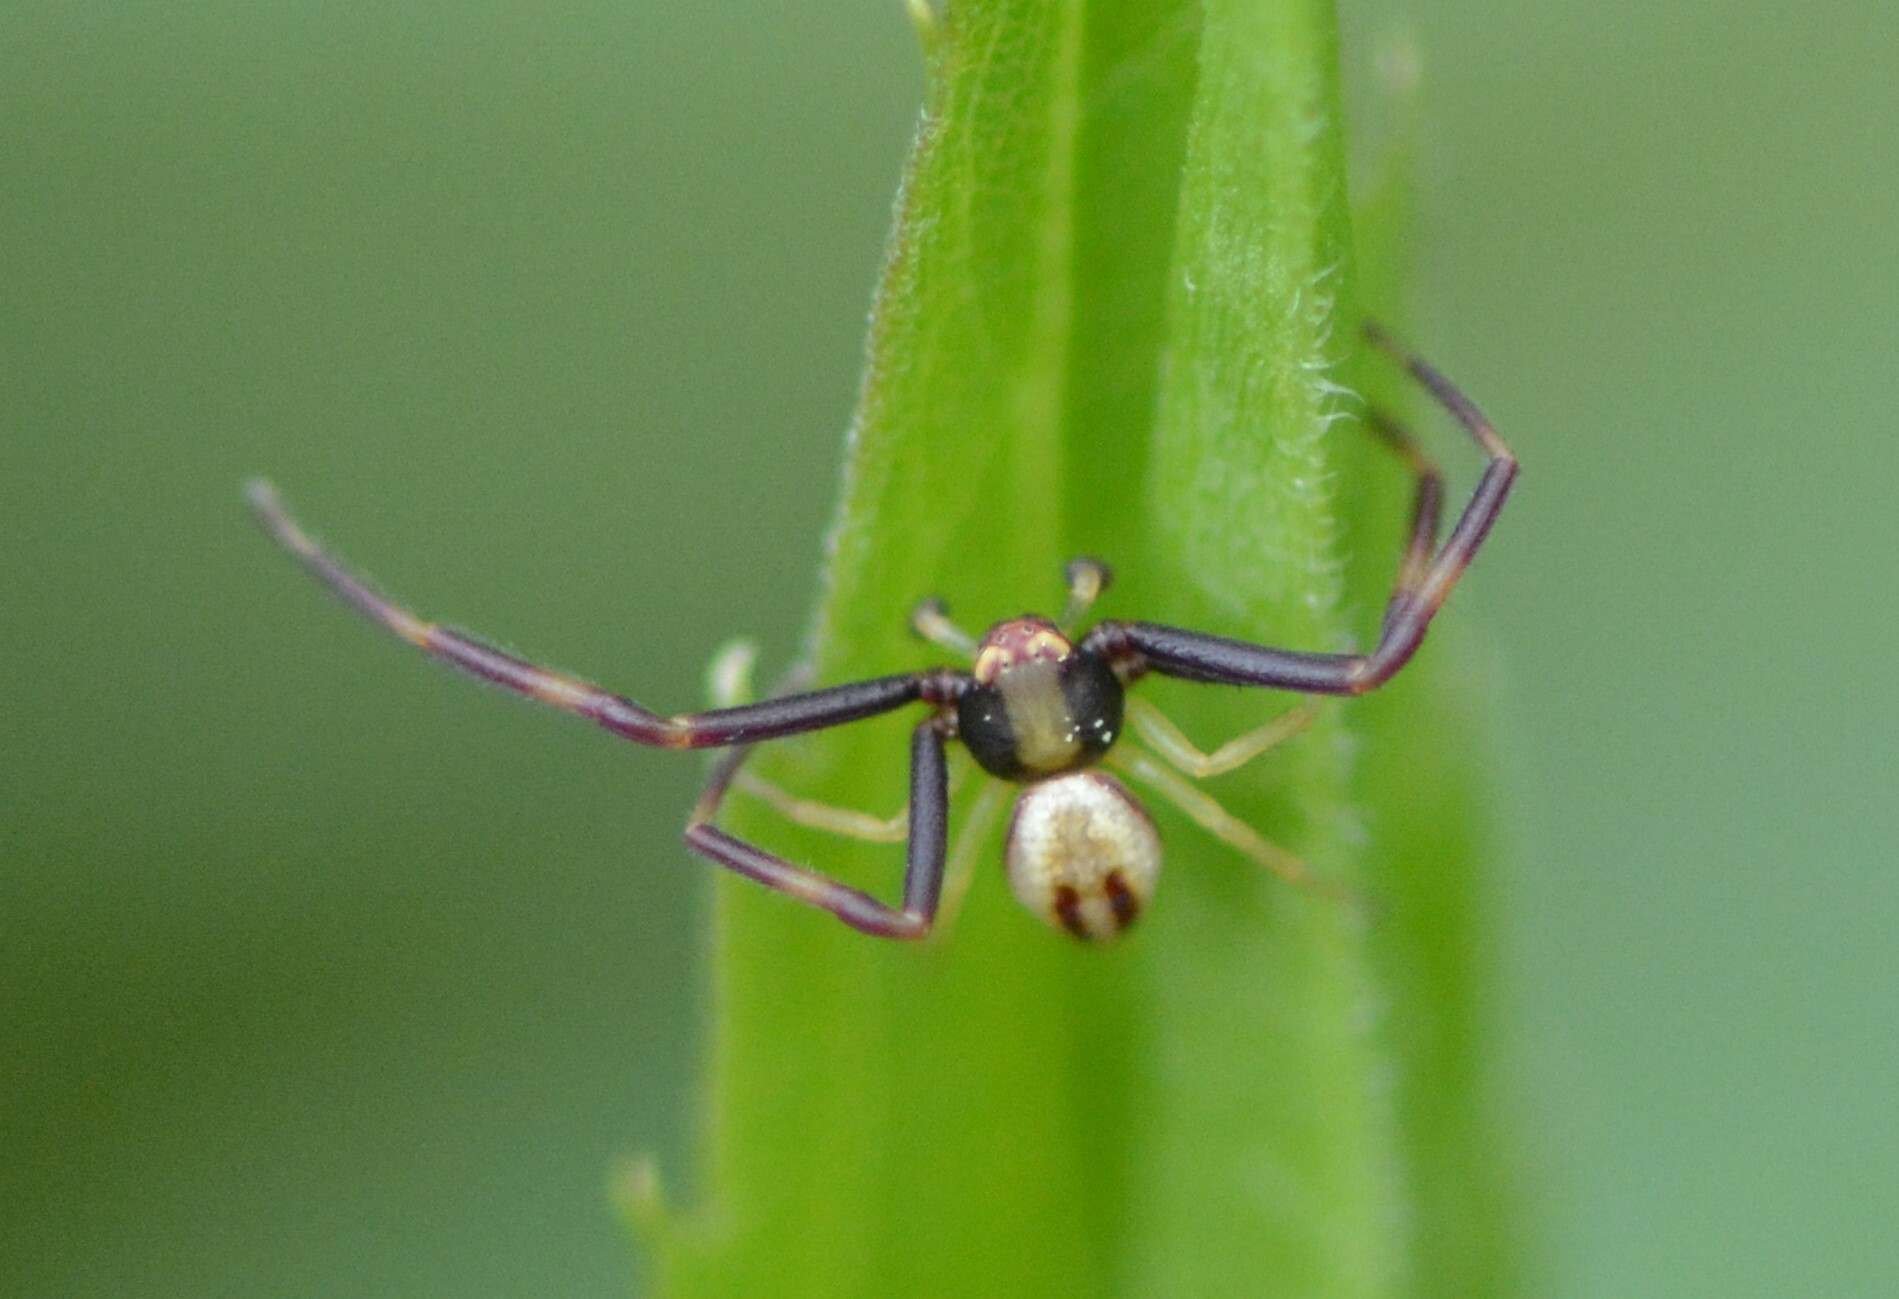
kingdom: Animalia
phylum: Arthropoda
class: Arachnida
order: Araneae
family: Thomisidae
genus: Misumena
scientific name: Misumena vatia
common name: Goldenrod crab spider
